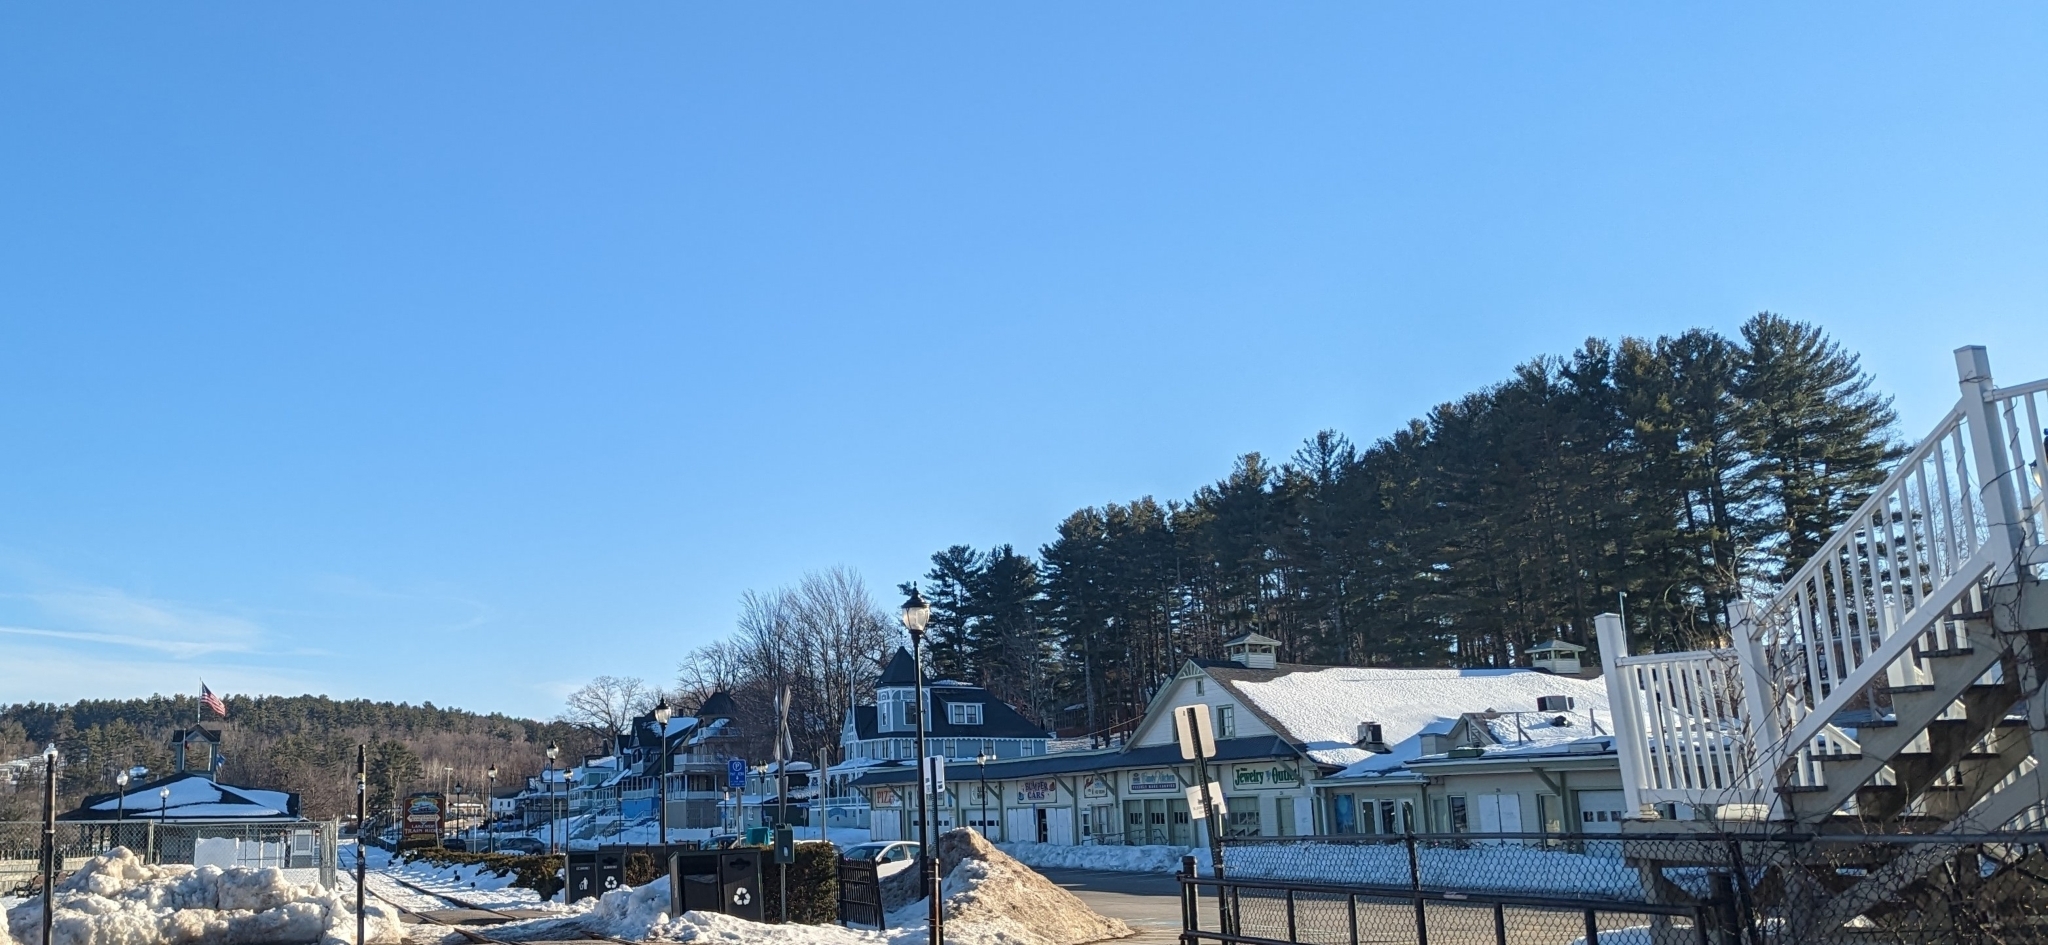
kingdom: Plantae
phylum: Tracheophyta
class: Pinopsida
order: Pinales
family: Pinaceae
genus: Pinus
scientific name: Pinus strobus
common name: Weymouth pine
